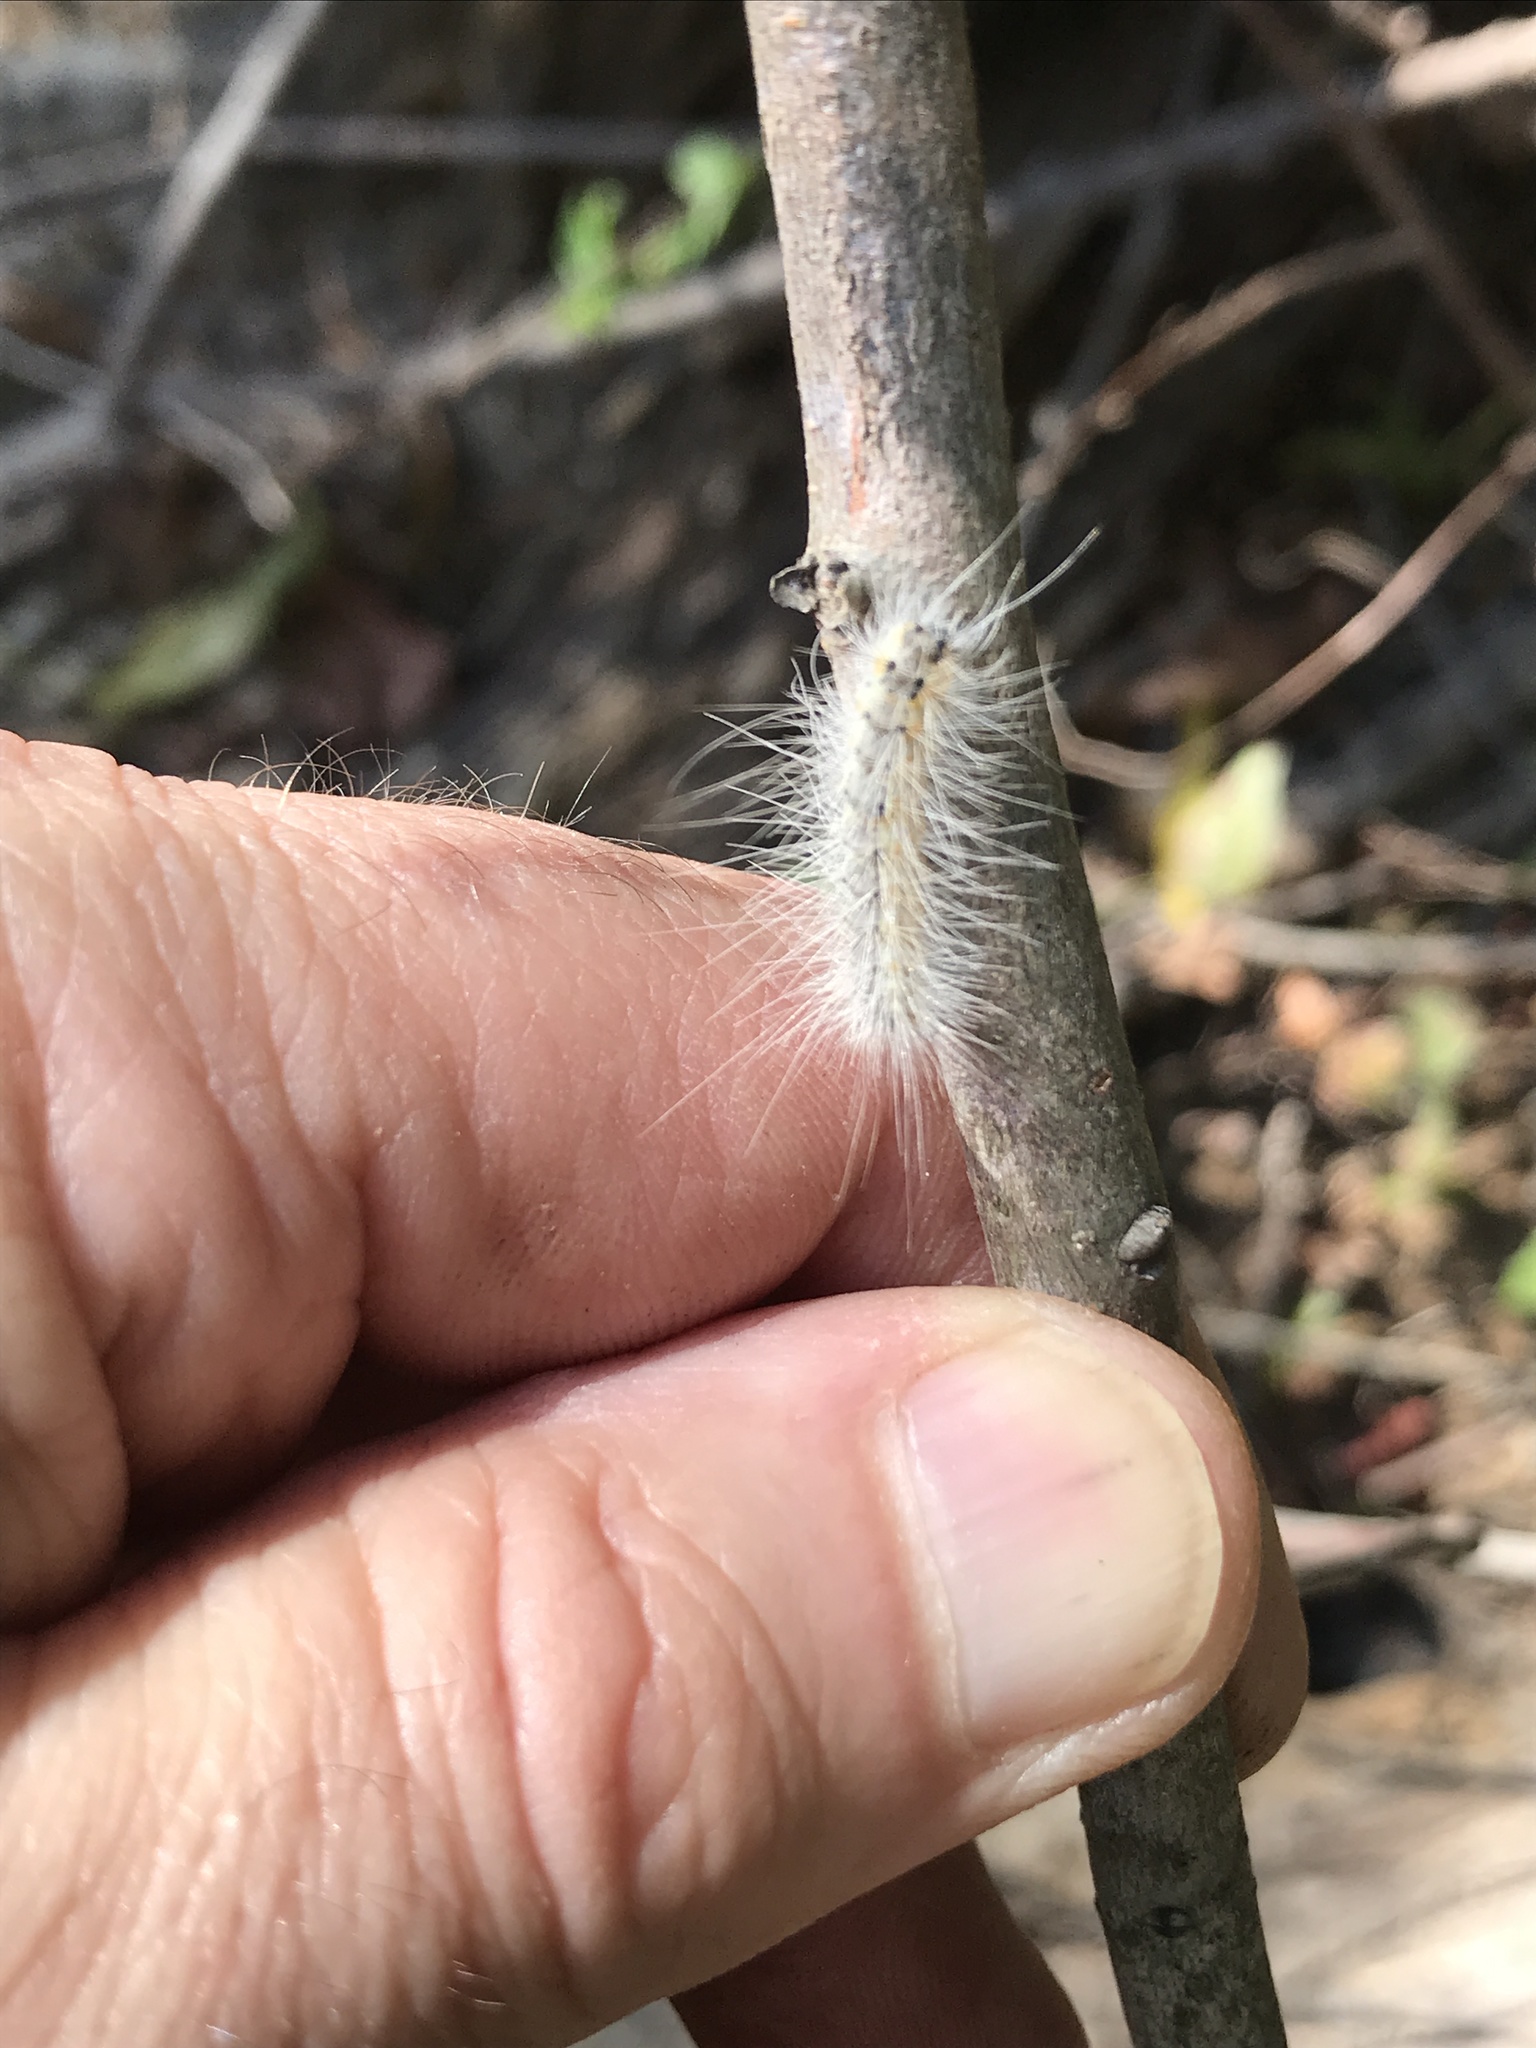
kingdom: Animalia
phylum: Arthropoda
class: Insecta
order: Lepidoptera
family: Erebidae
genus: Hyphantria
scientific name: Hyphantria cunea
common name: American white moth
